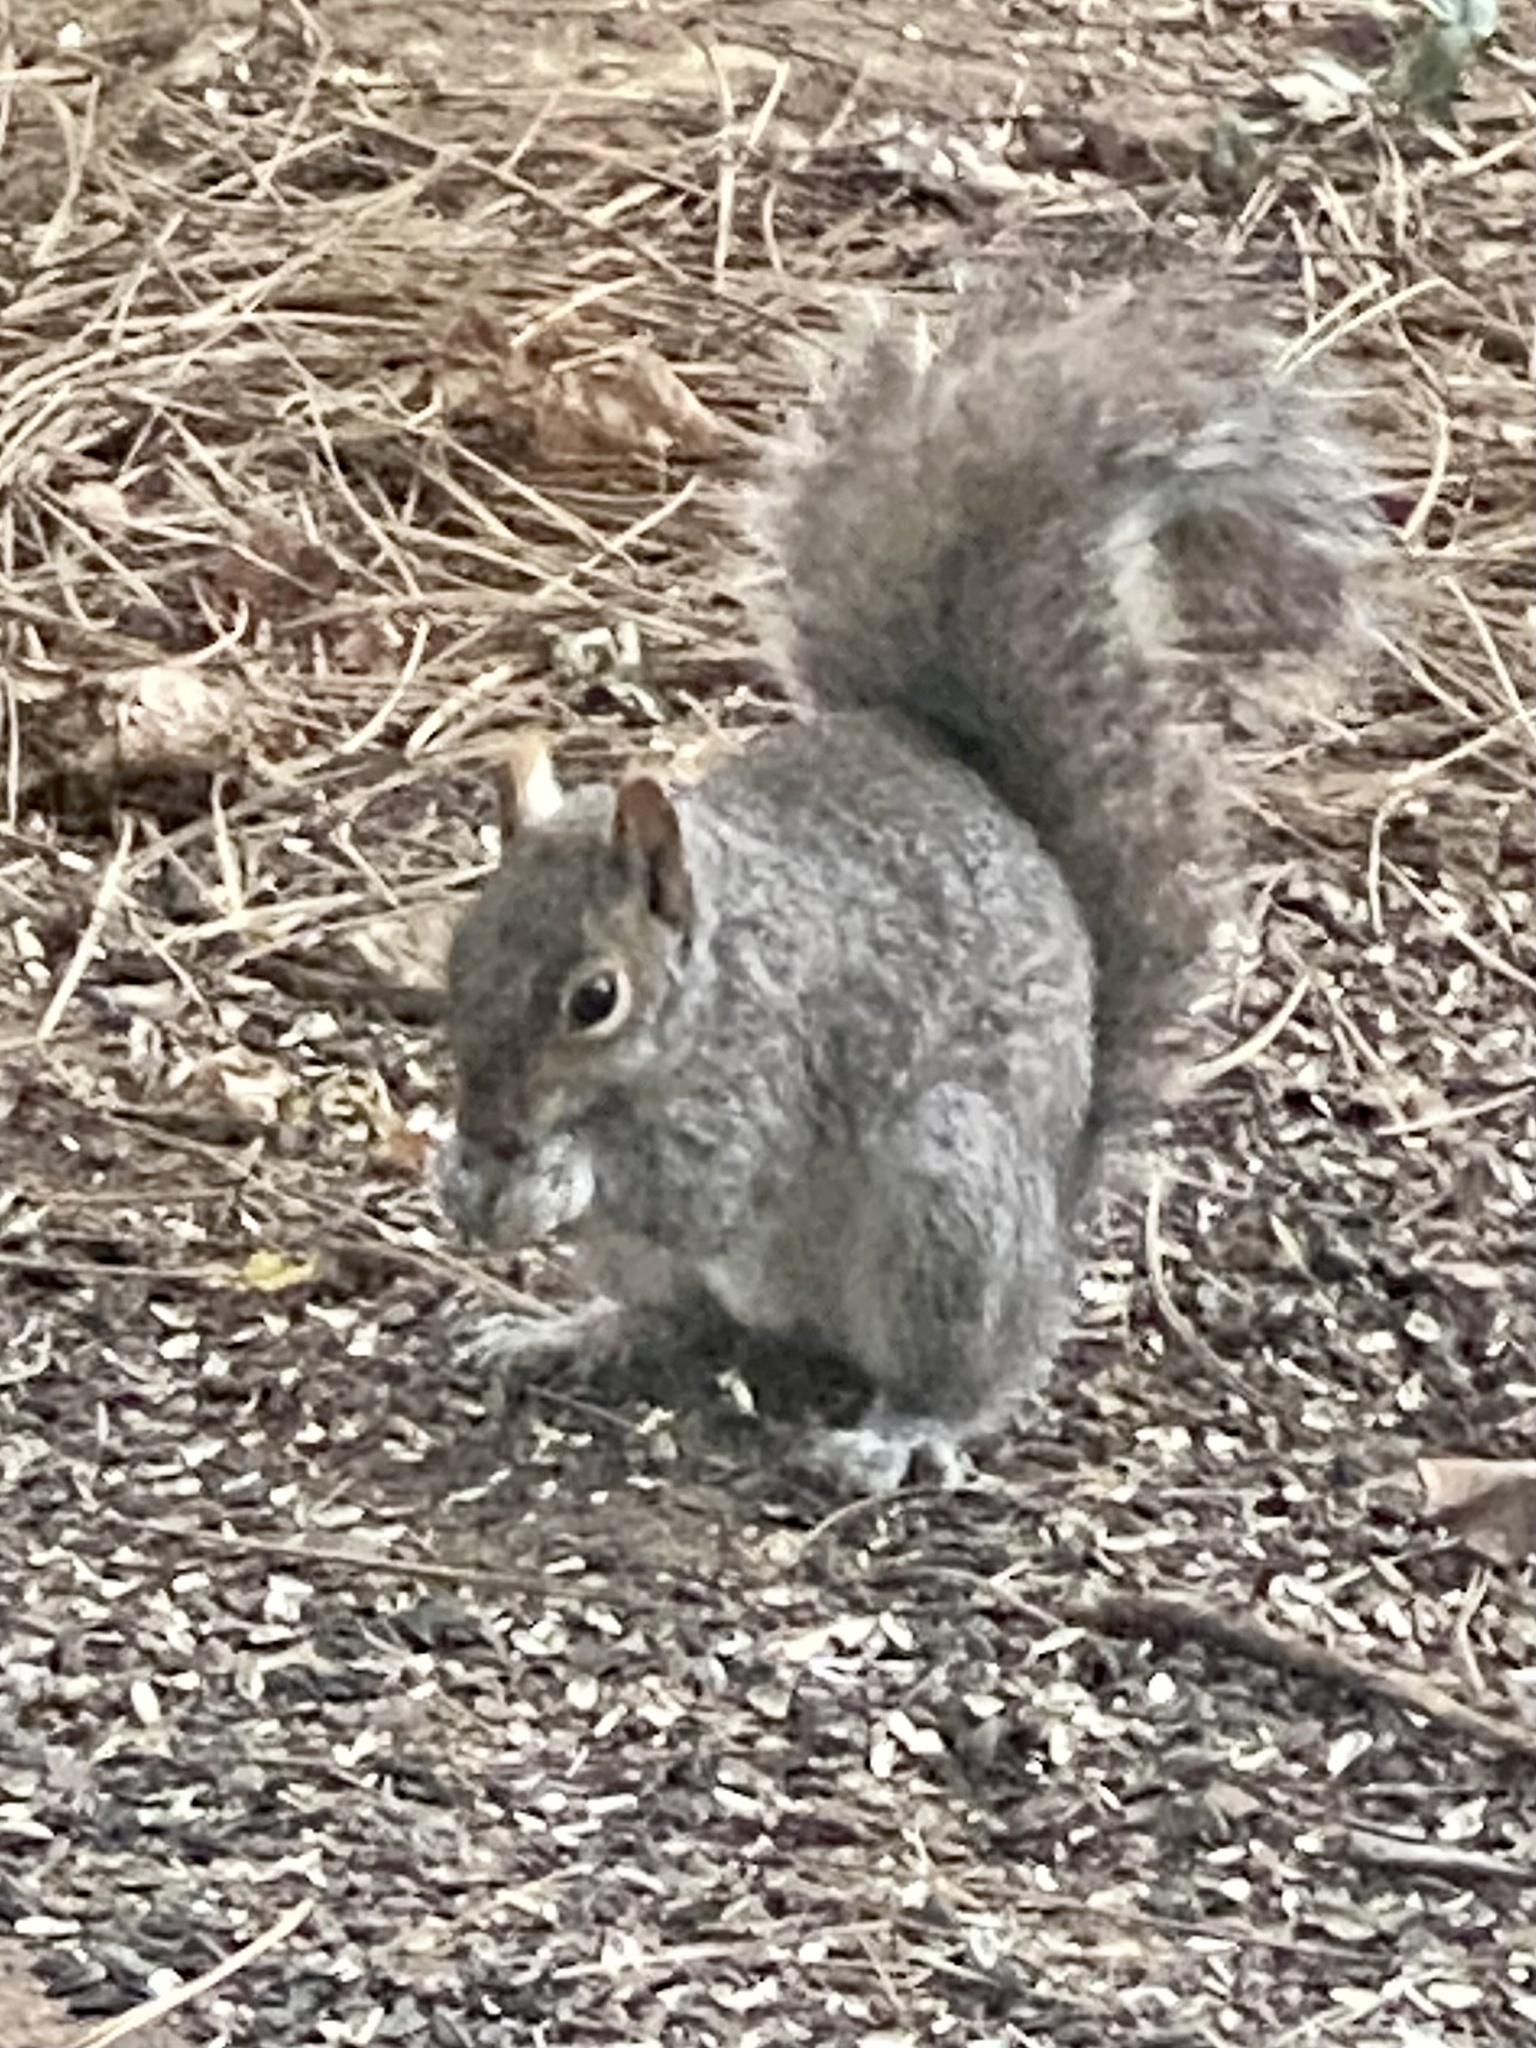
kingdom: Animalia
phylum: Chordata
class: Mammalia
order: Rodentia
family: Sciuridae
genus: Sciurus
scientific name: Sciurus carolinensis
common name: Eastern gray squirrel
